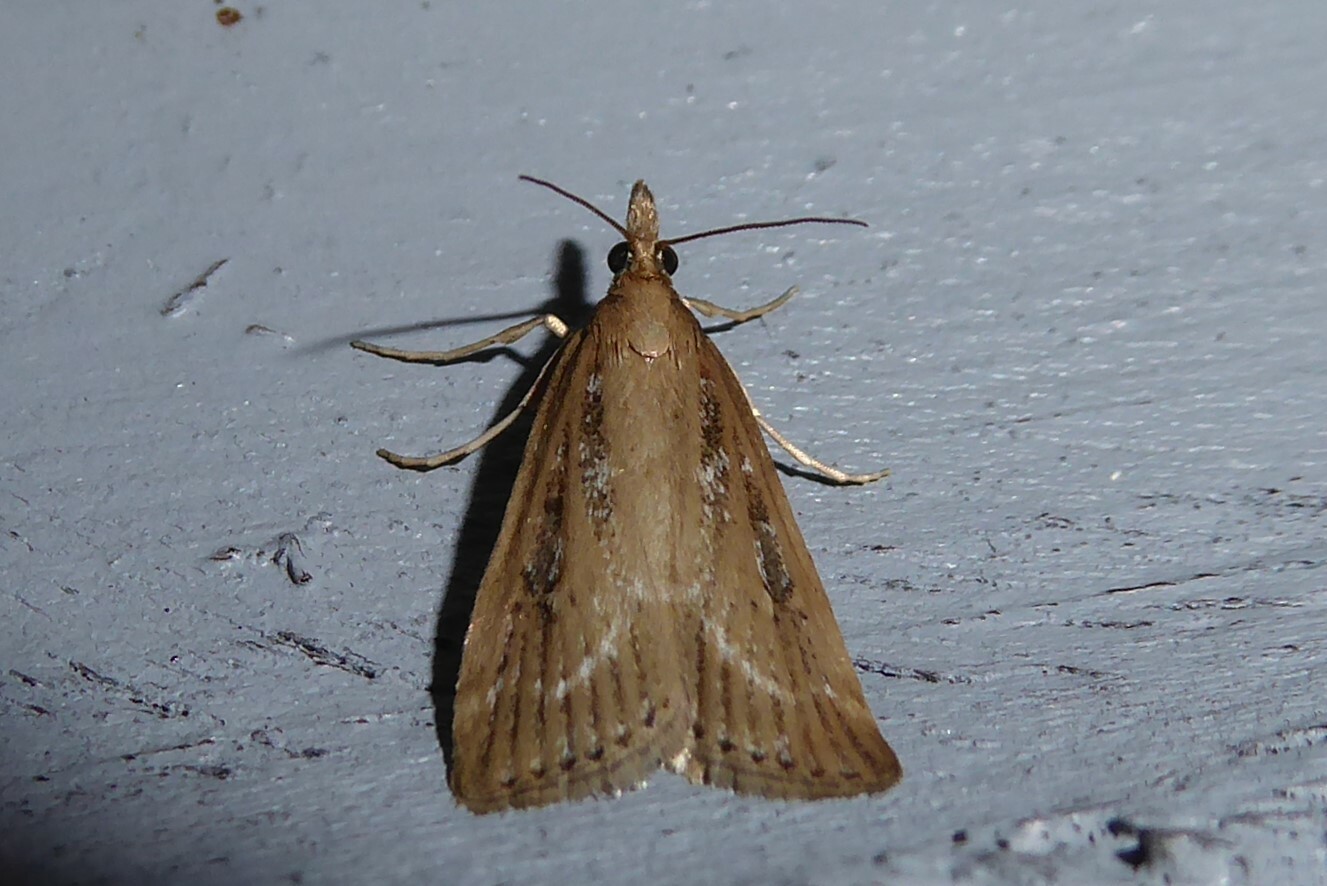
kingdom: Animalia
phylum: Arthropoda
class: Insecta
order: Lepidoptera
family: Crambidae
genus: Eudonia
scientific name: Eudonia octophora
